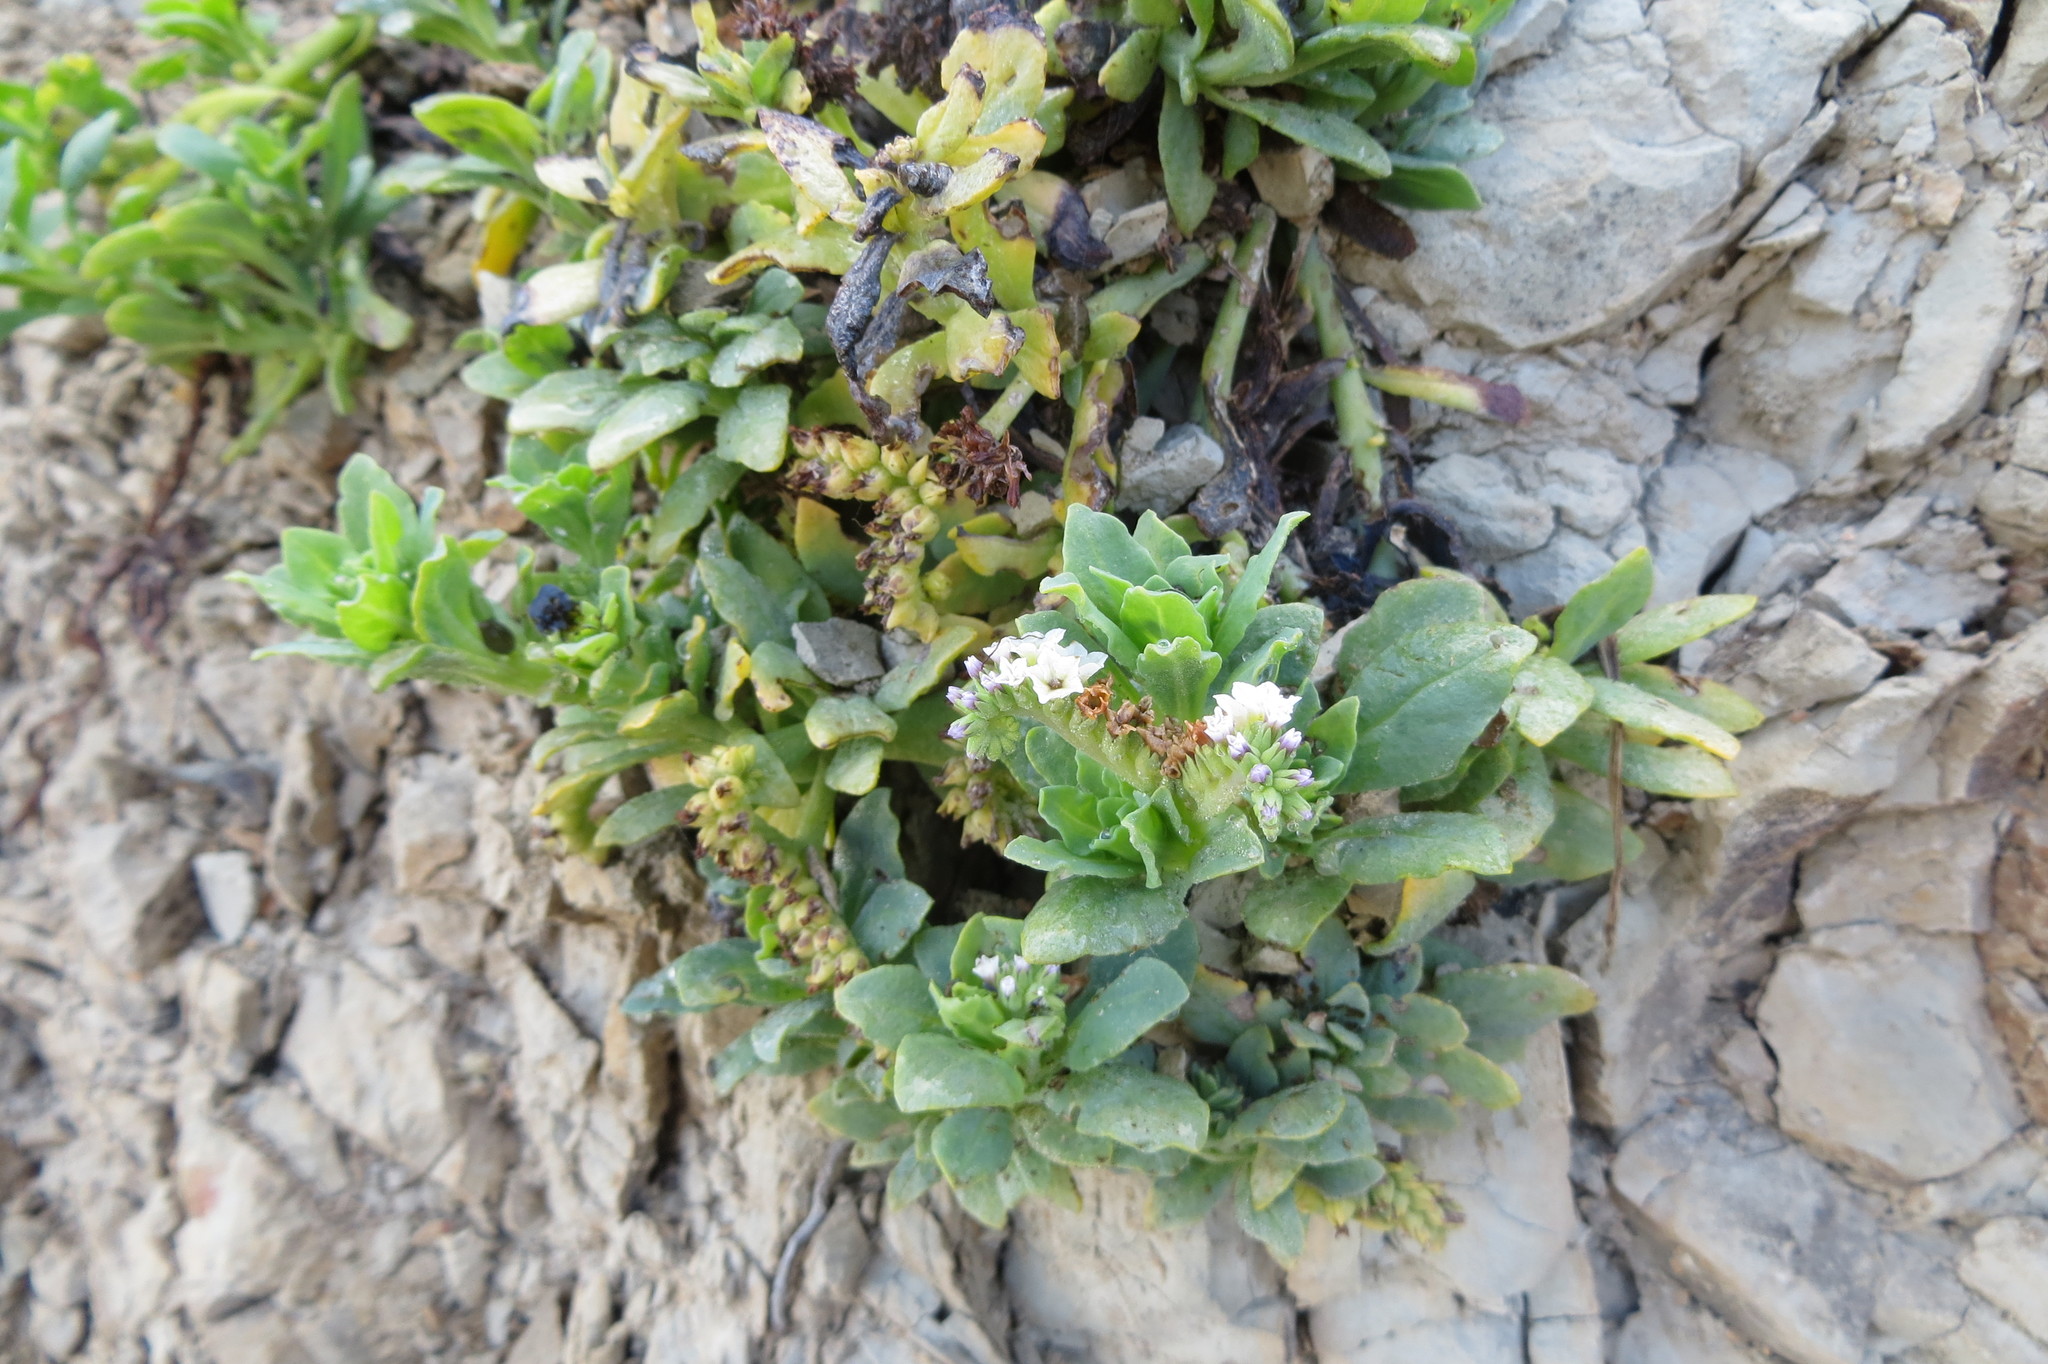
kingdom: Plantae
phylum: Tracheophyta
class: Magnoliopsida
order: Boraginales
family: Heliotropiaceae
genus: Heliotropium
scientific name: Heliotropium curassavicum
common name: Seaside heliotrope
